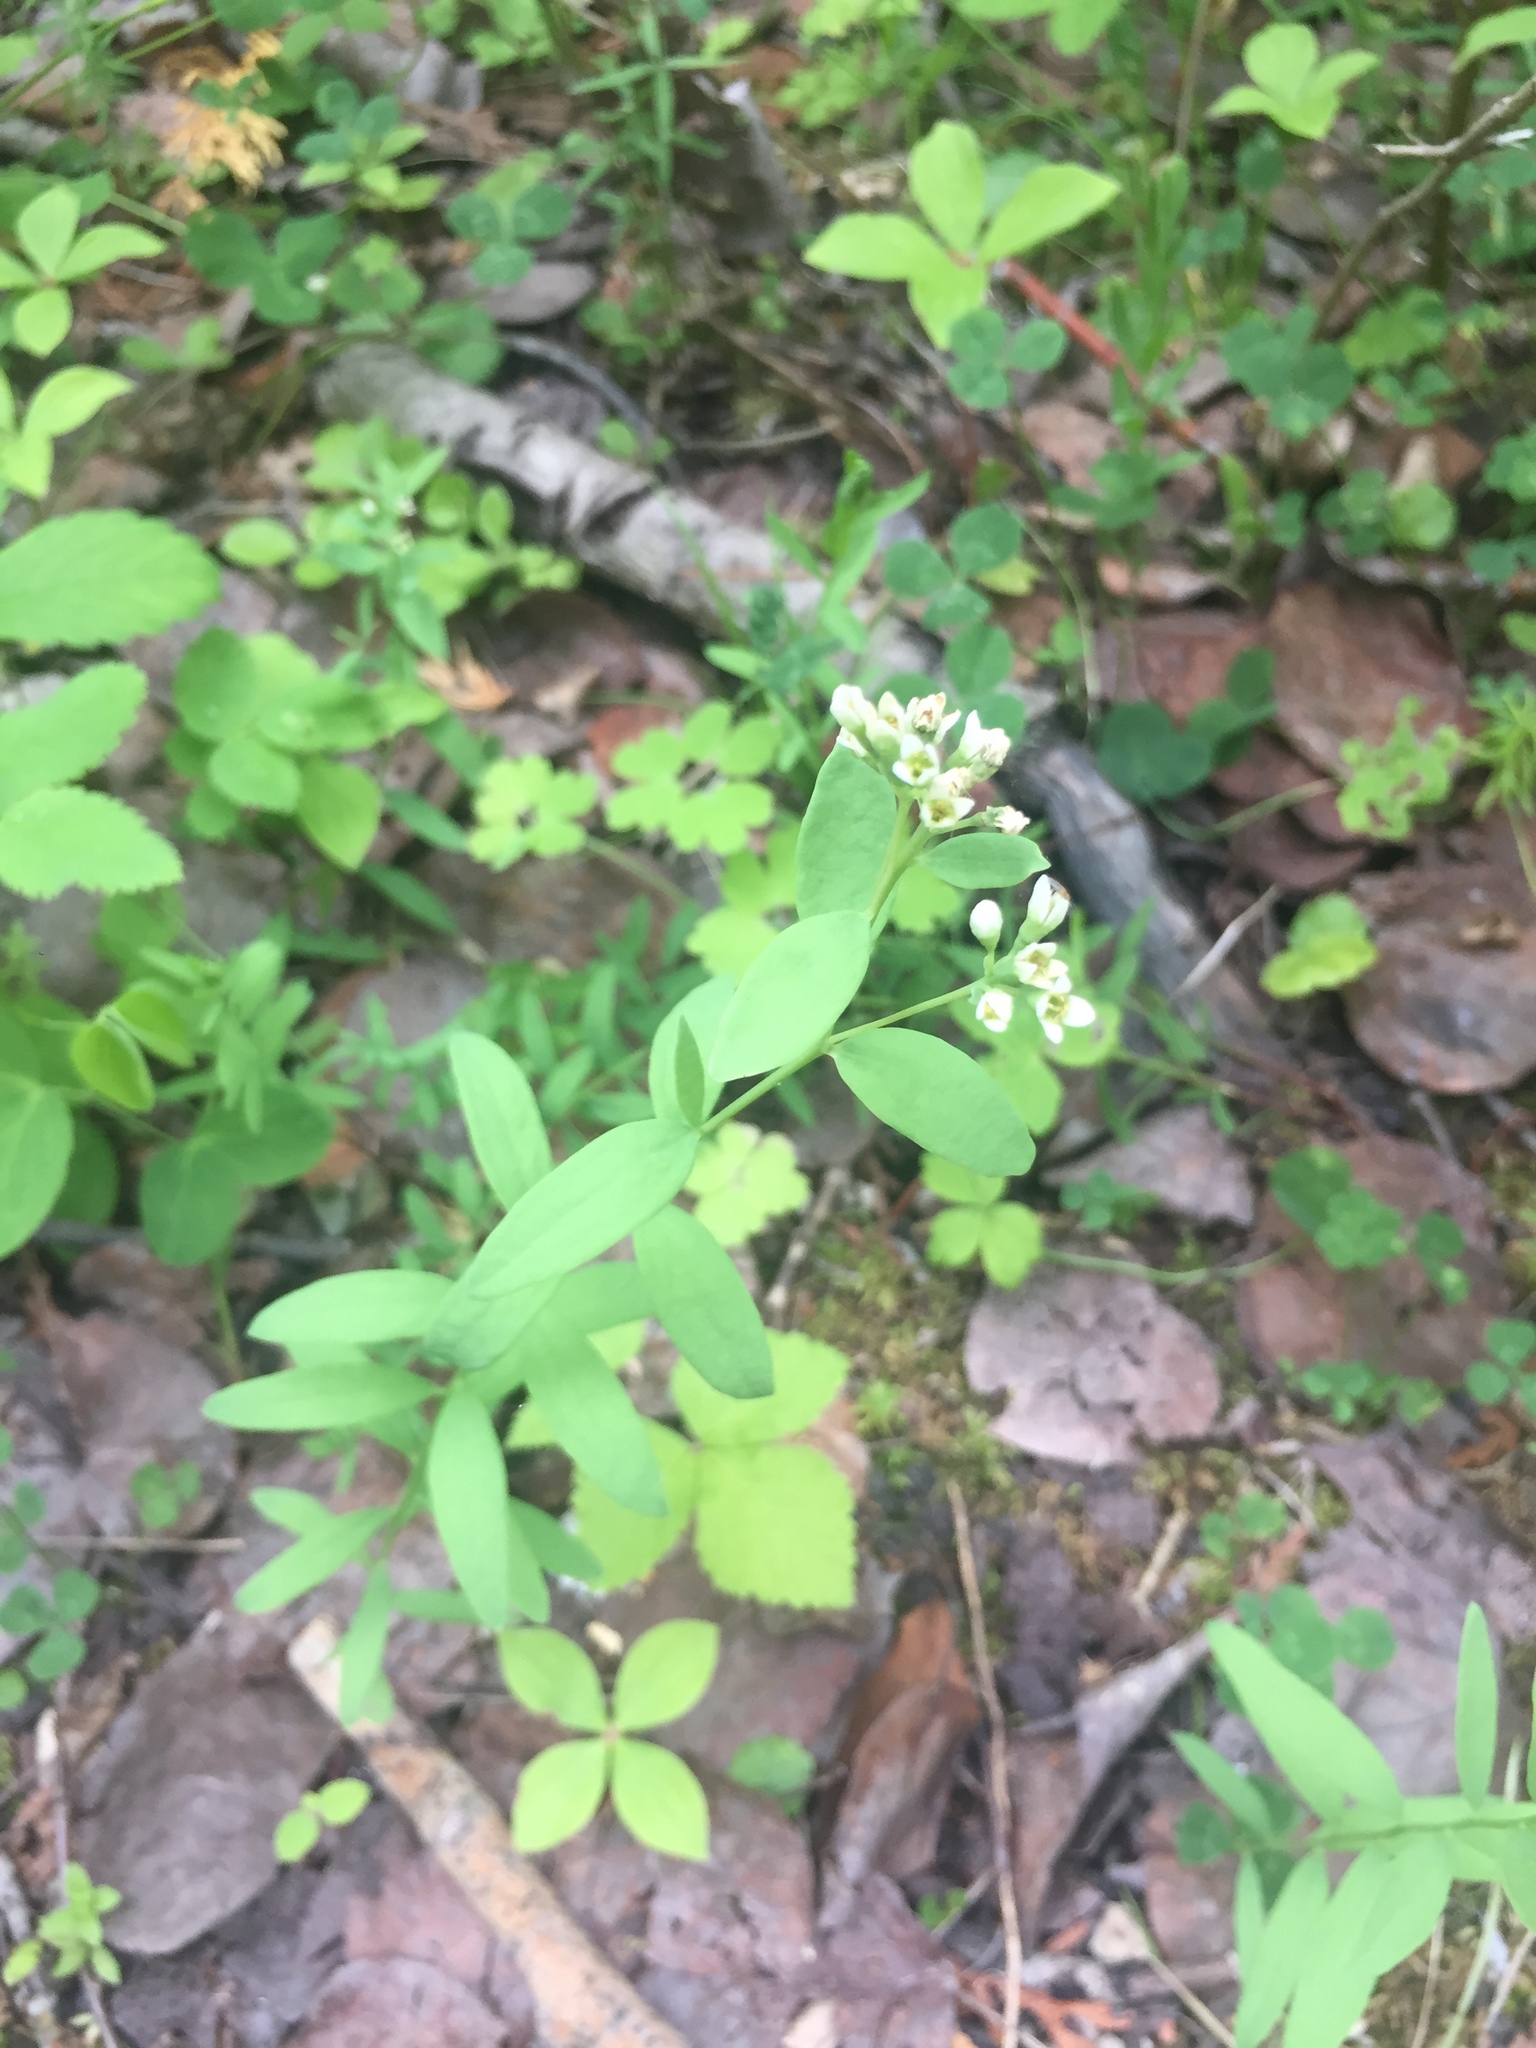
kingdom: Plantae
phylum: Tracheophyta
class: Magnoliopsida
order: Santalales
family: Comandraceae
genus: Comandra
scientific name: Comandra umbellata
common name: Bastard toadflax
